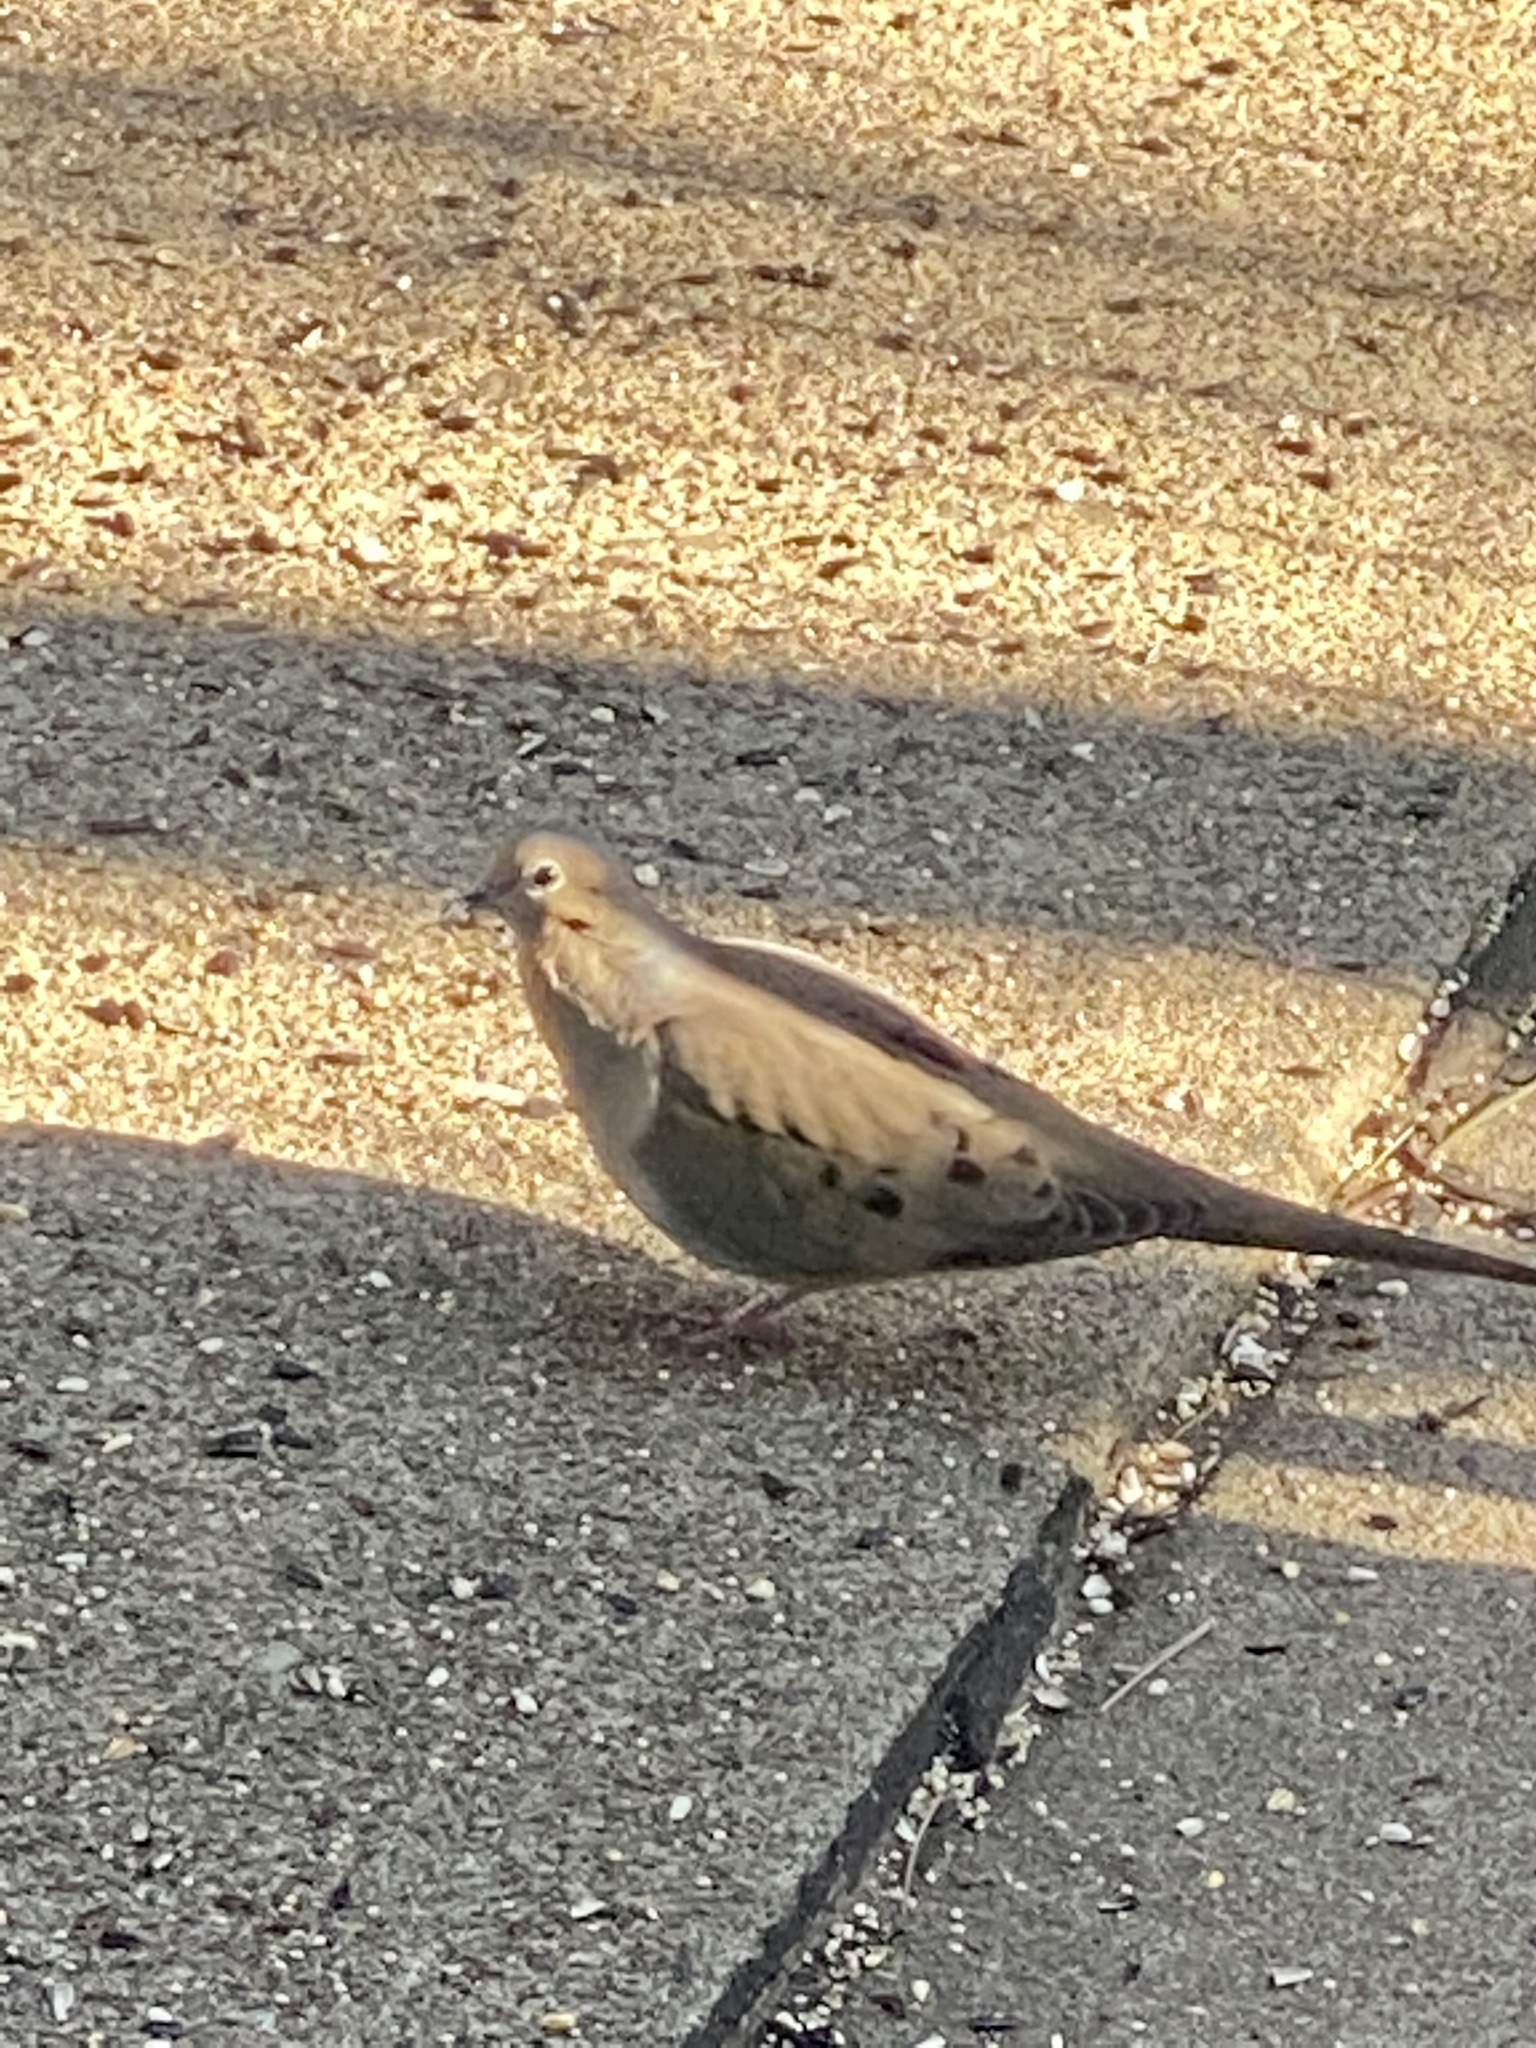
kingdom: Animalia
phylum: Chordata
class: Aves
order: Columbiformes
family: Columbidae
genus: Zenaida
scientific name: Zenaida macroura
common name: Mourning dove
